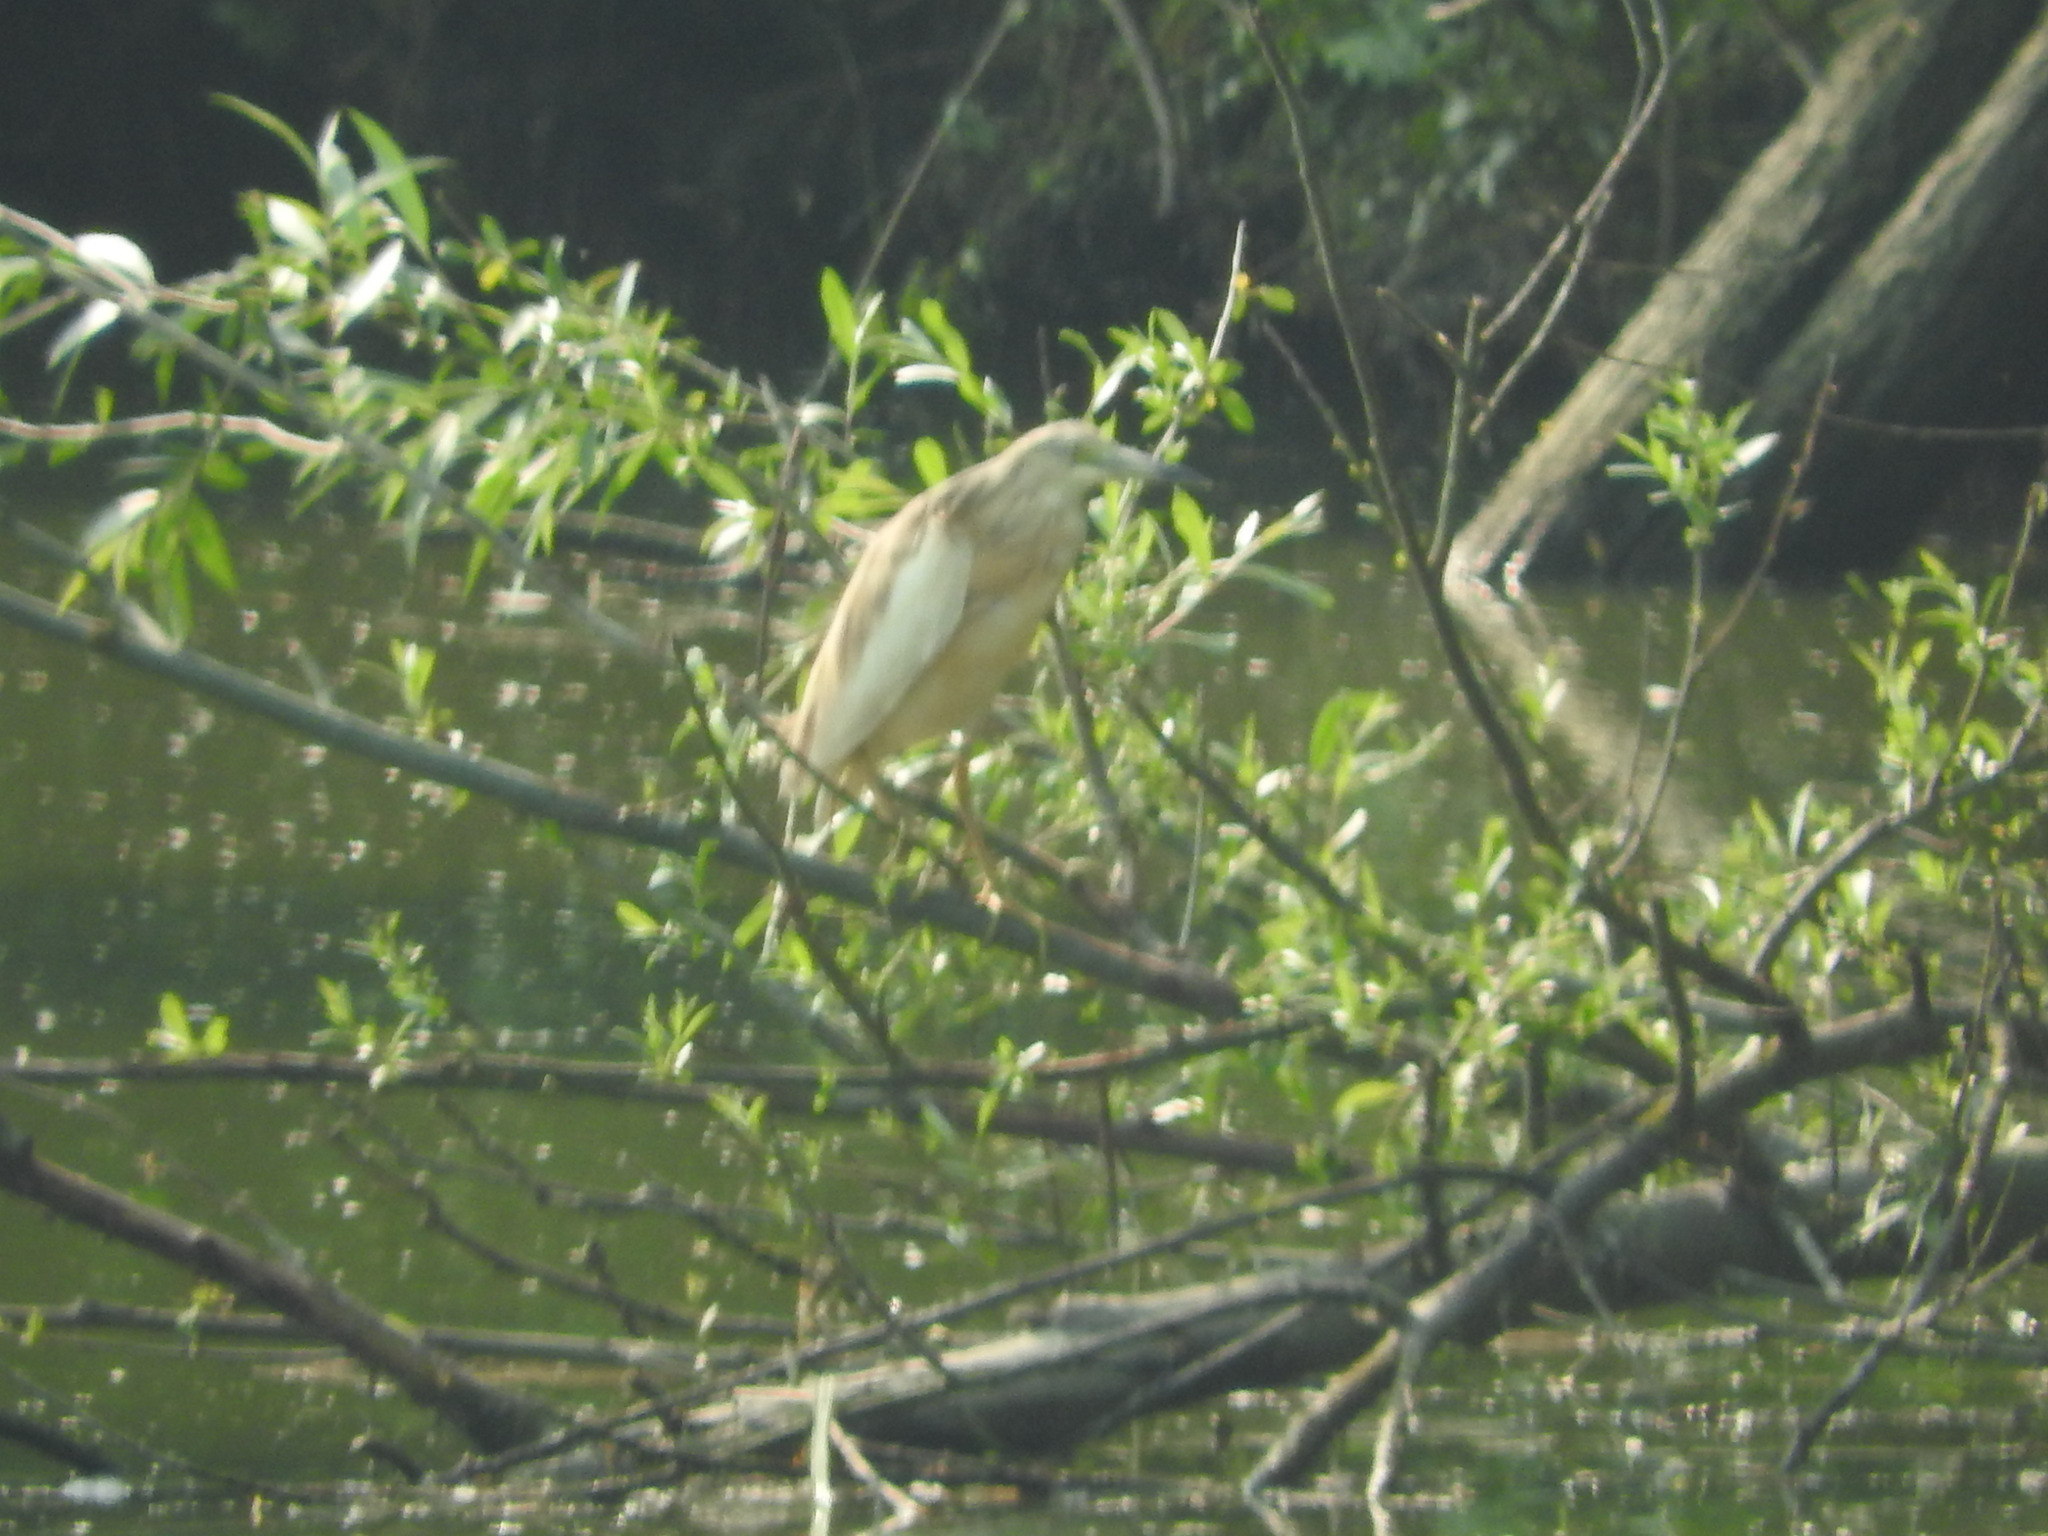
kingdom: Animalia
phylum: Chordata
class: Aves
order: Pelecaniformes
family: Ardeidae
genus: Ardeola
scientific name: Ardeola ralloides
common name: Squacco heron
